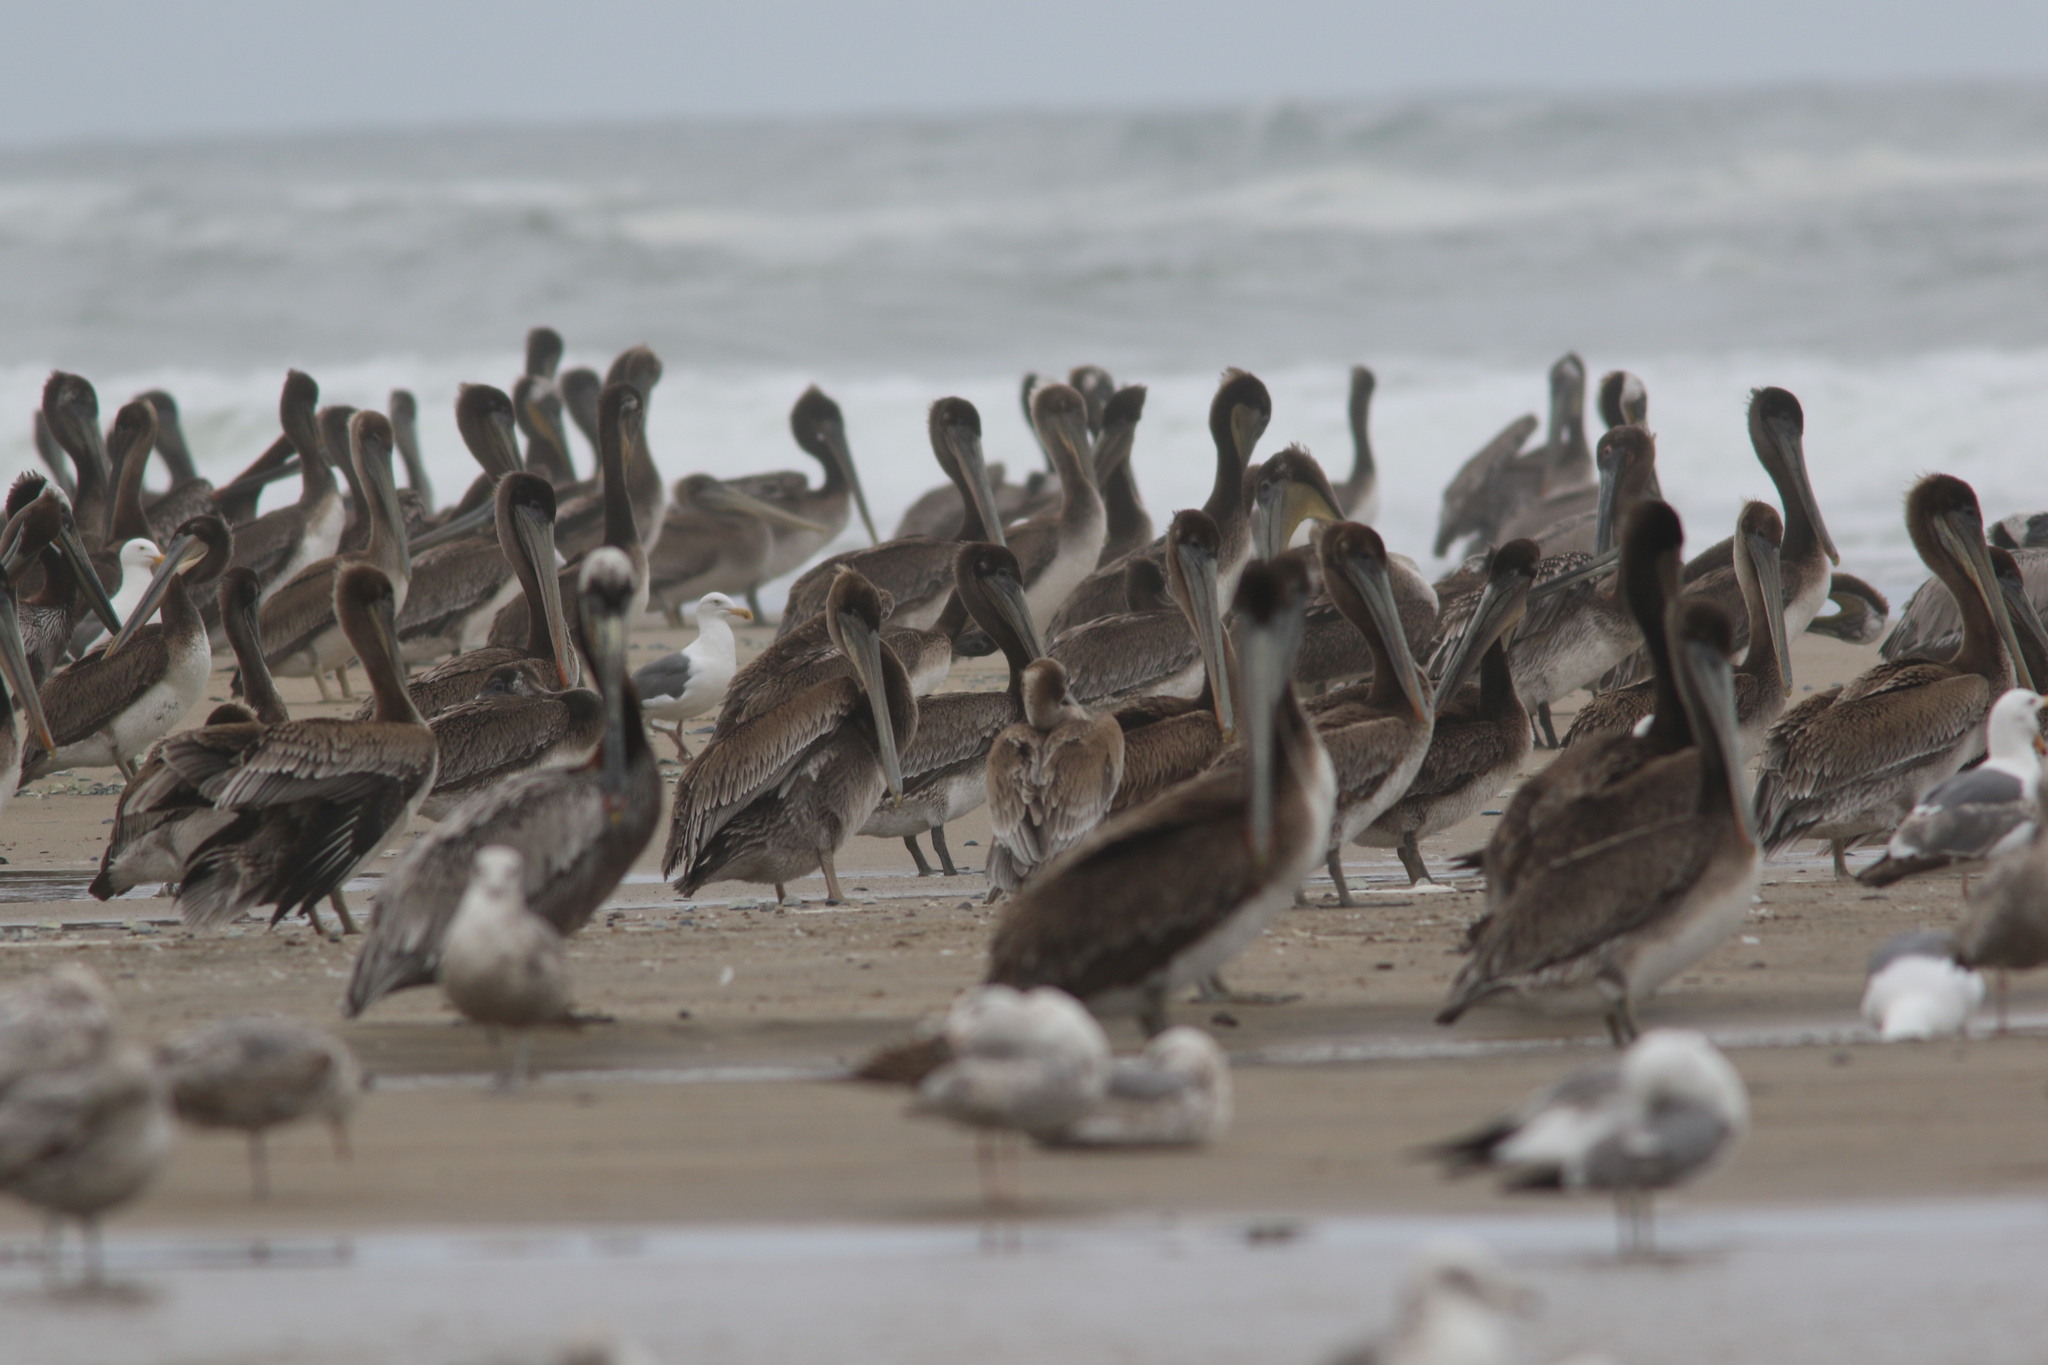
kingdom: Animalia
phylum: Chordata
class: Aves
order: Pelecaniformes
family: Pelecanidae
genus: Pelecanus
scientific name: Pelecanus occidentalis
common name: Brown pelican
